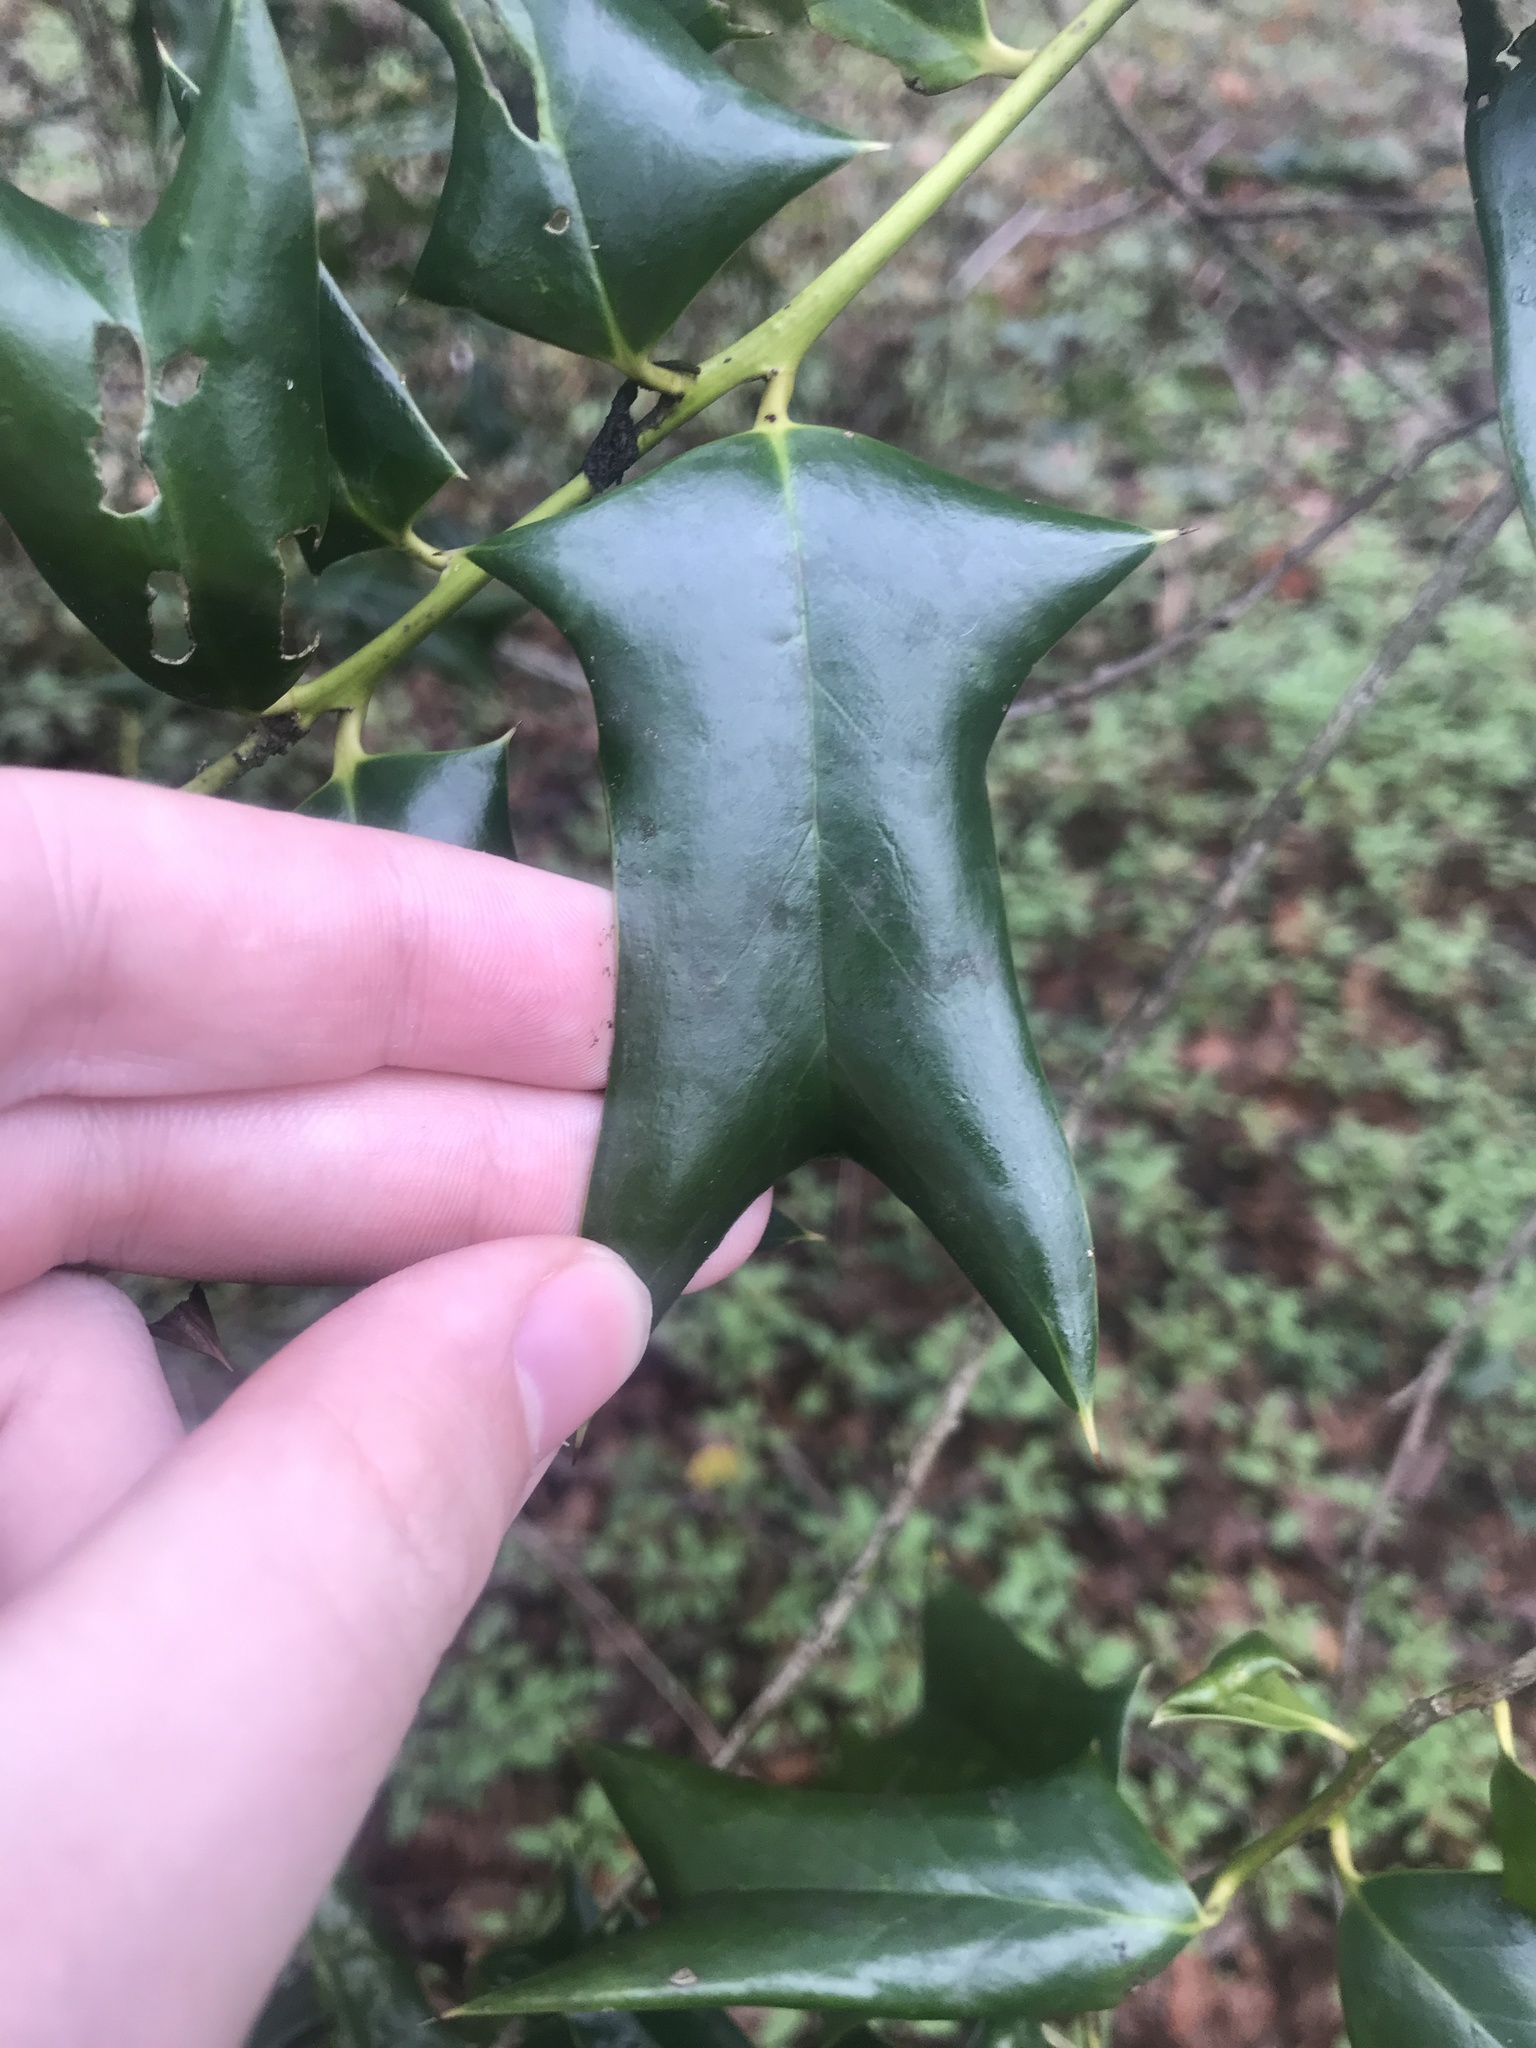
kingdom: Plantae
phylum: Tracheophyta
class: Magnoliopsida
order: Aquifoliales
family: Aquifoliaceae
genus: Ilex
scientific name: Ilex cornuta
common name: Chinese holly
